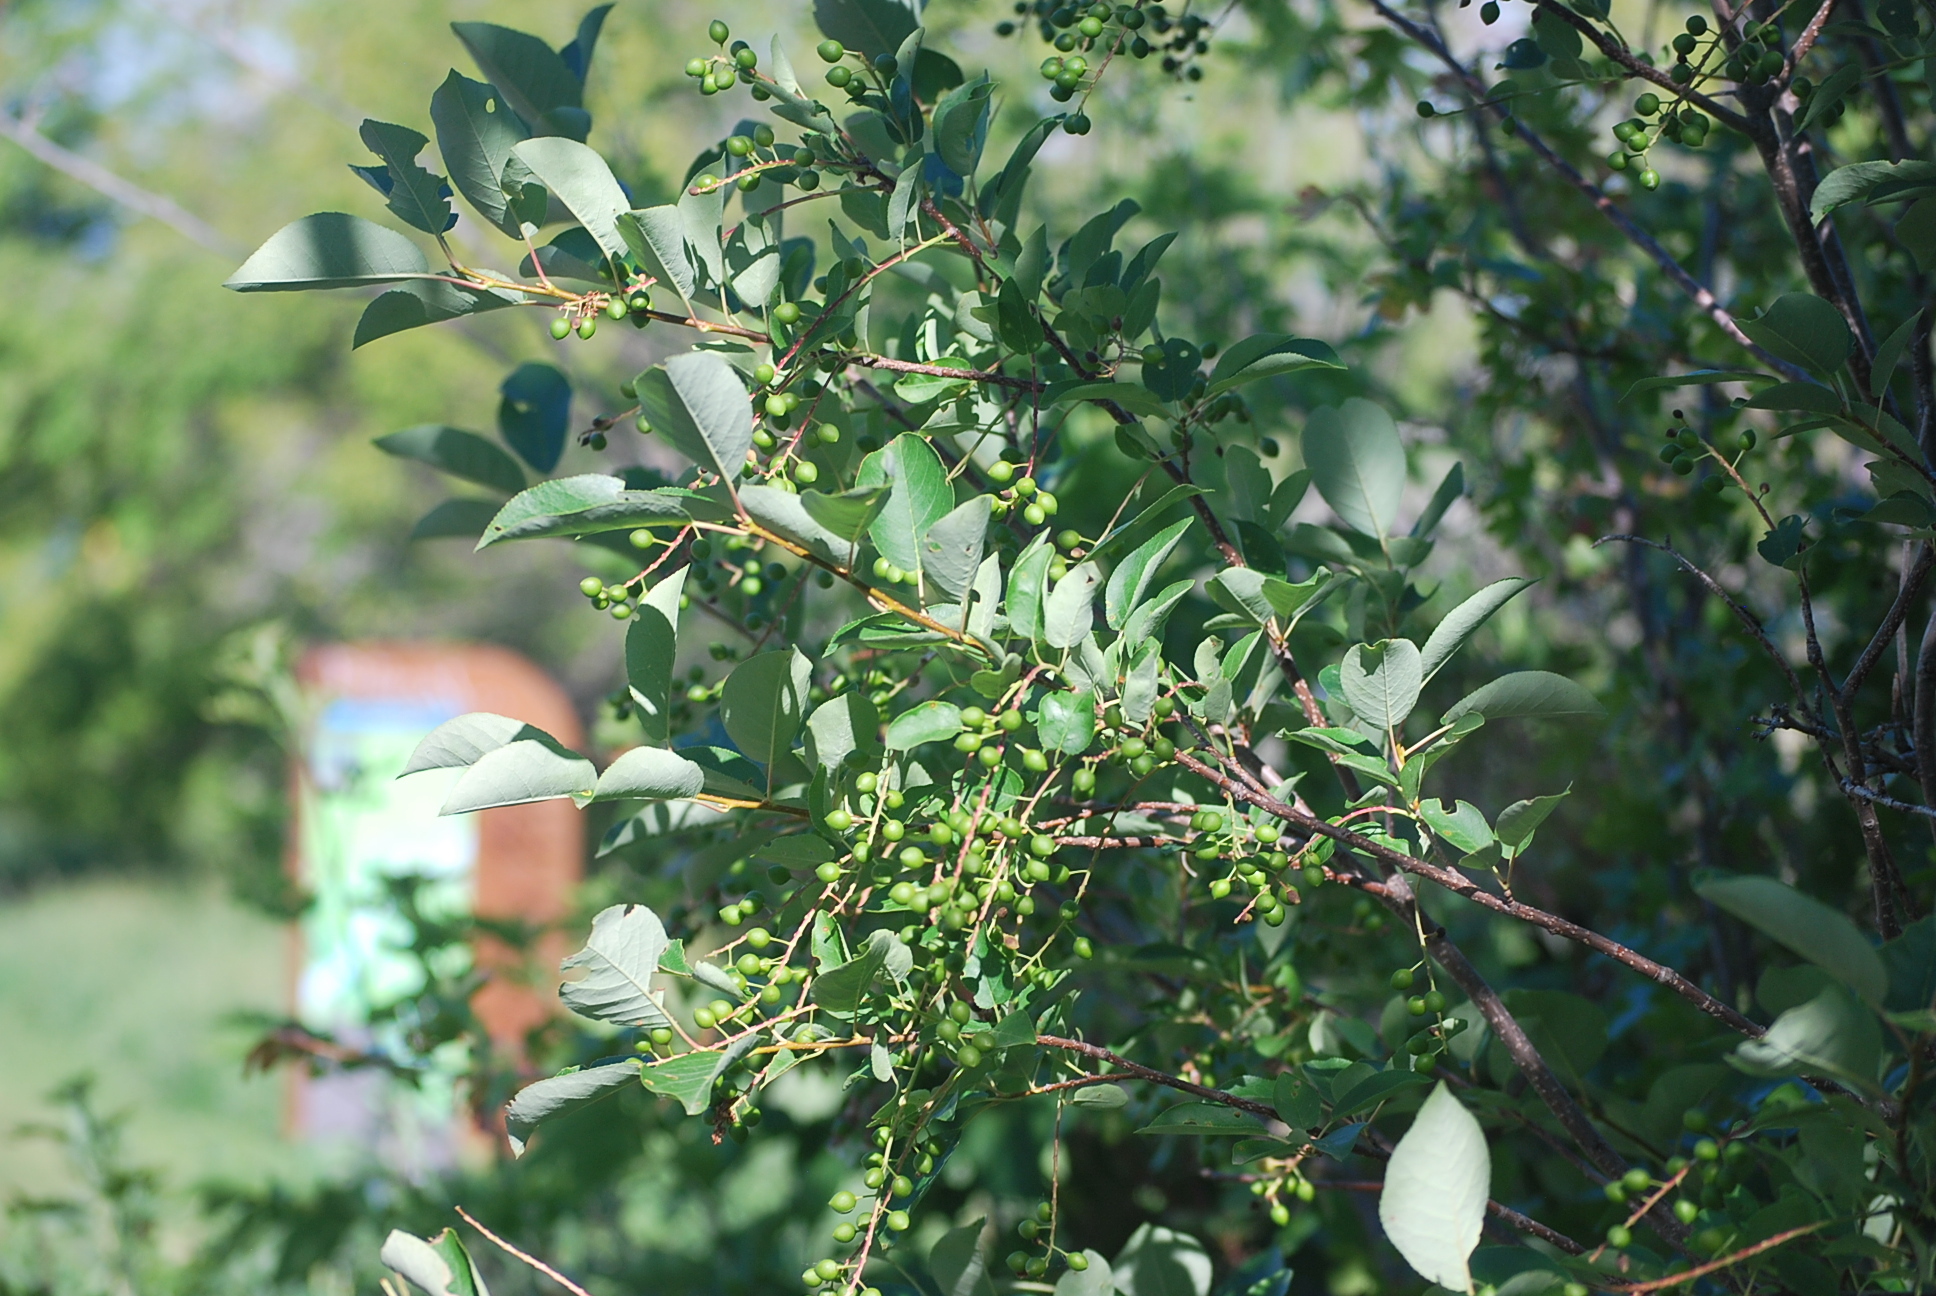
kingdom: Plantae
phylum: Tracheophyta
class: Magnoliopsida
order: Rosales
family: Rosaceae
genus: Prunus
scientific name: Prunus virginiana
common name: Chokecherry
